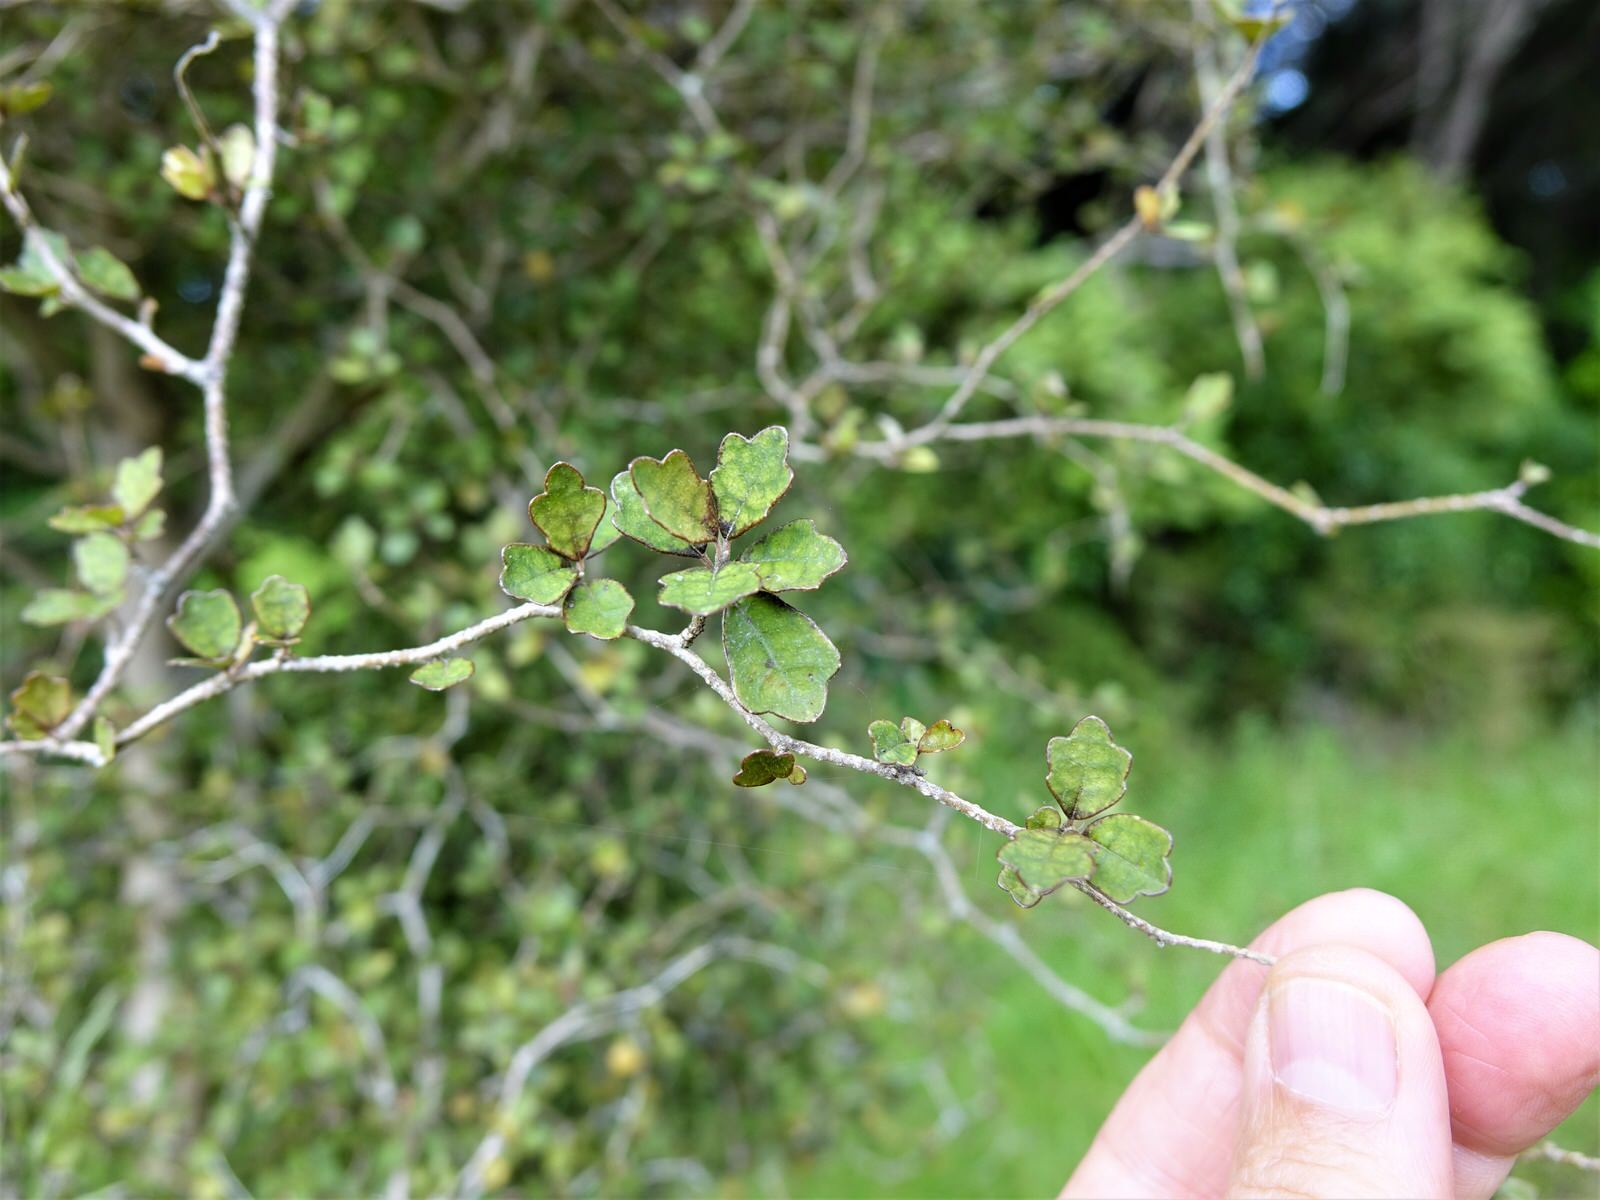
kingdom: Plantae
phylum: Tracheophyta
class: Magnoliopsida
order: Apiales
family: Pennantiaceae
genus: Pennantia
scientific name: Pennantia corymbosa
